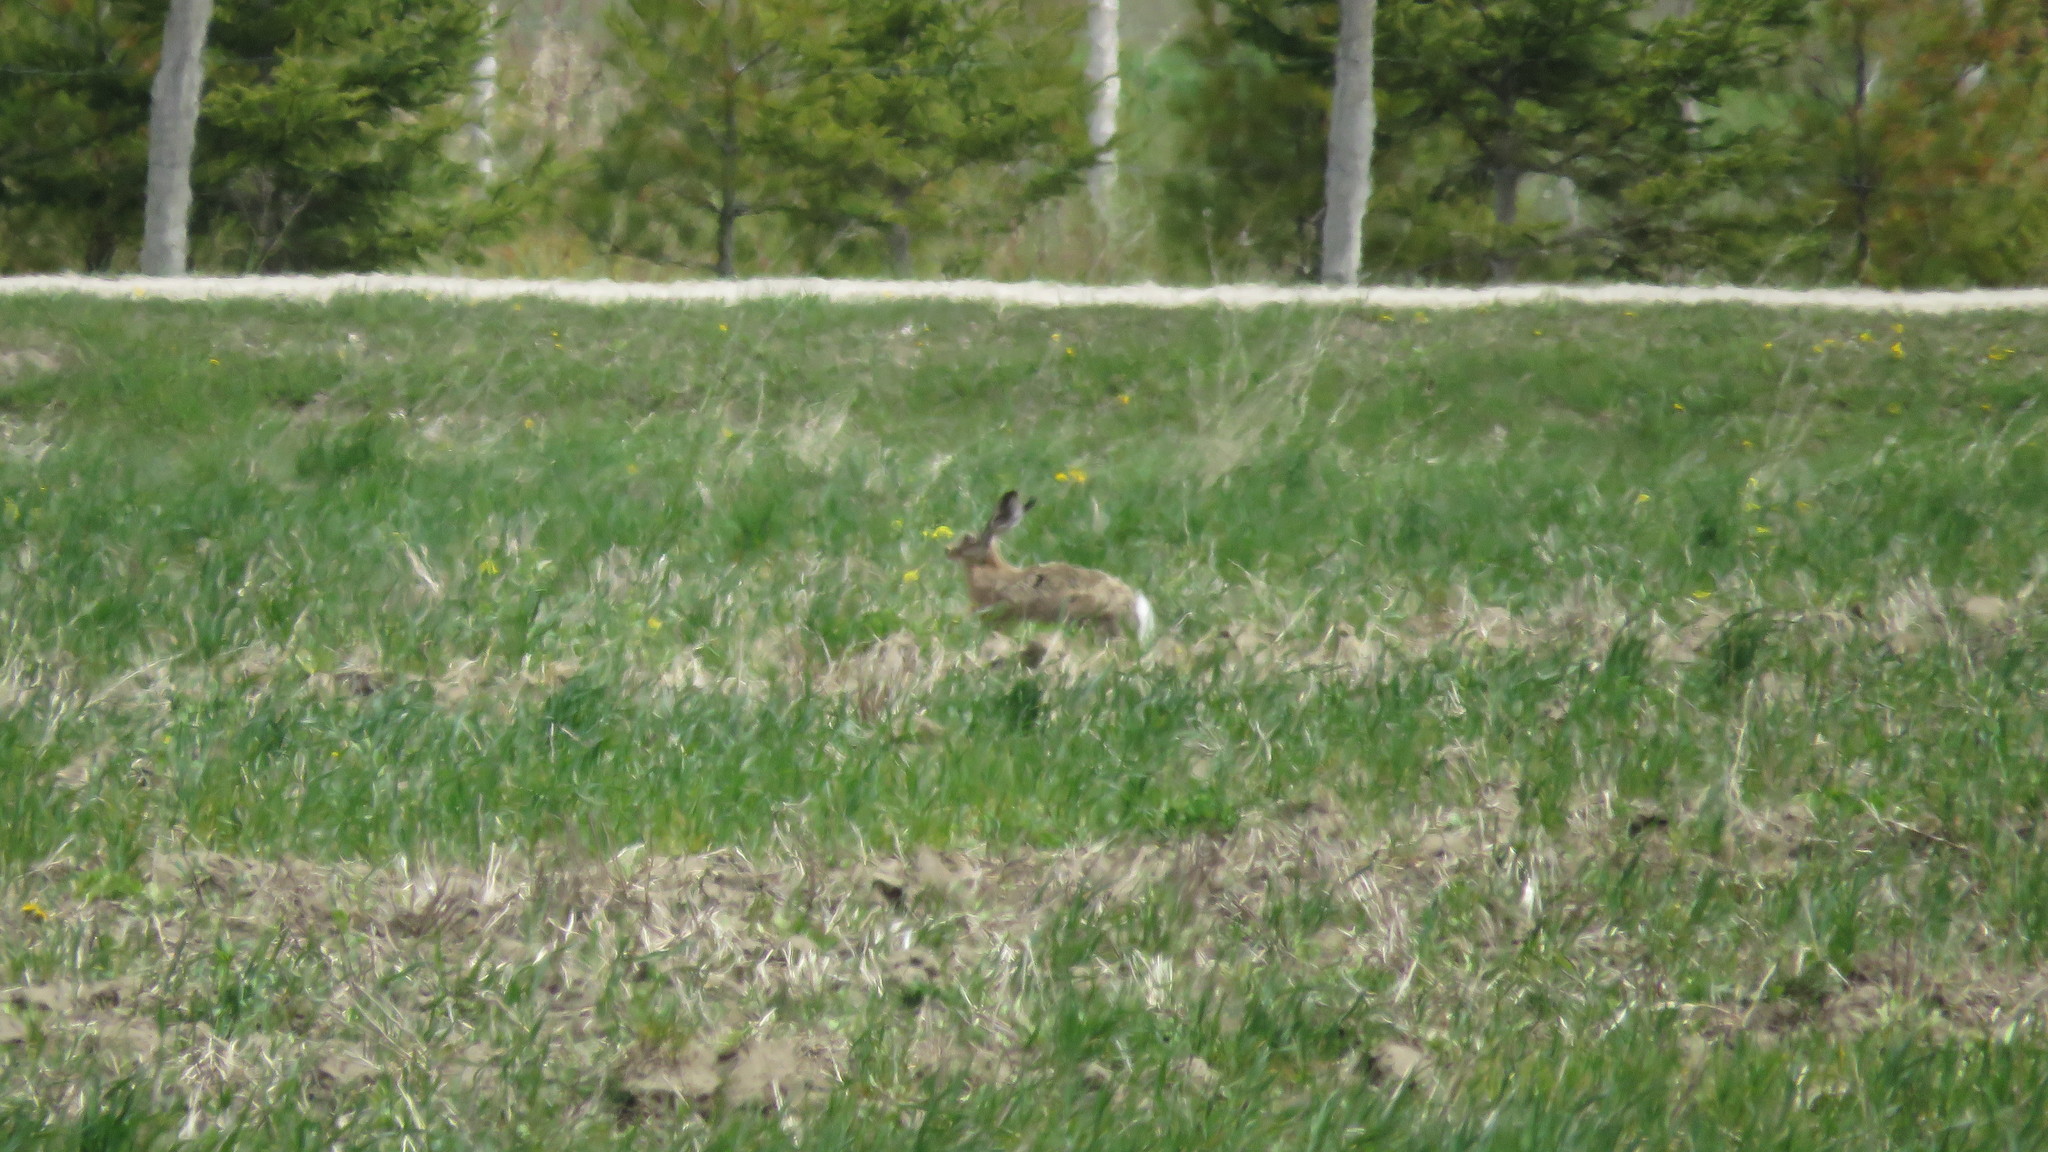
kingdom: Animalia
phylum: Chordata
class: Mammalia
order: Lagomorpha
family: Leporidae
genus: Lepus
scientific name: Lepus europaeus
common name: European hare
